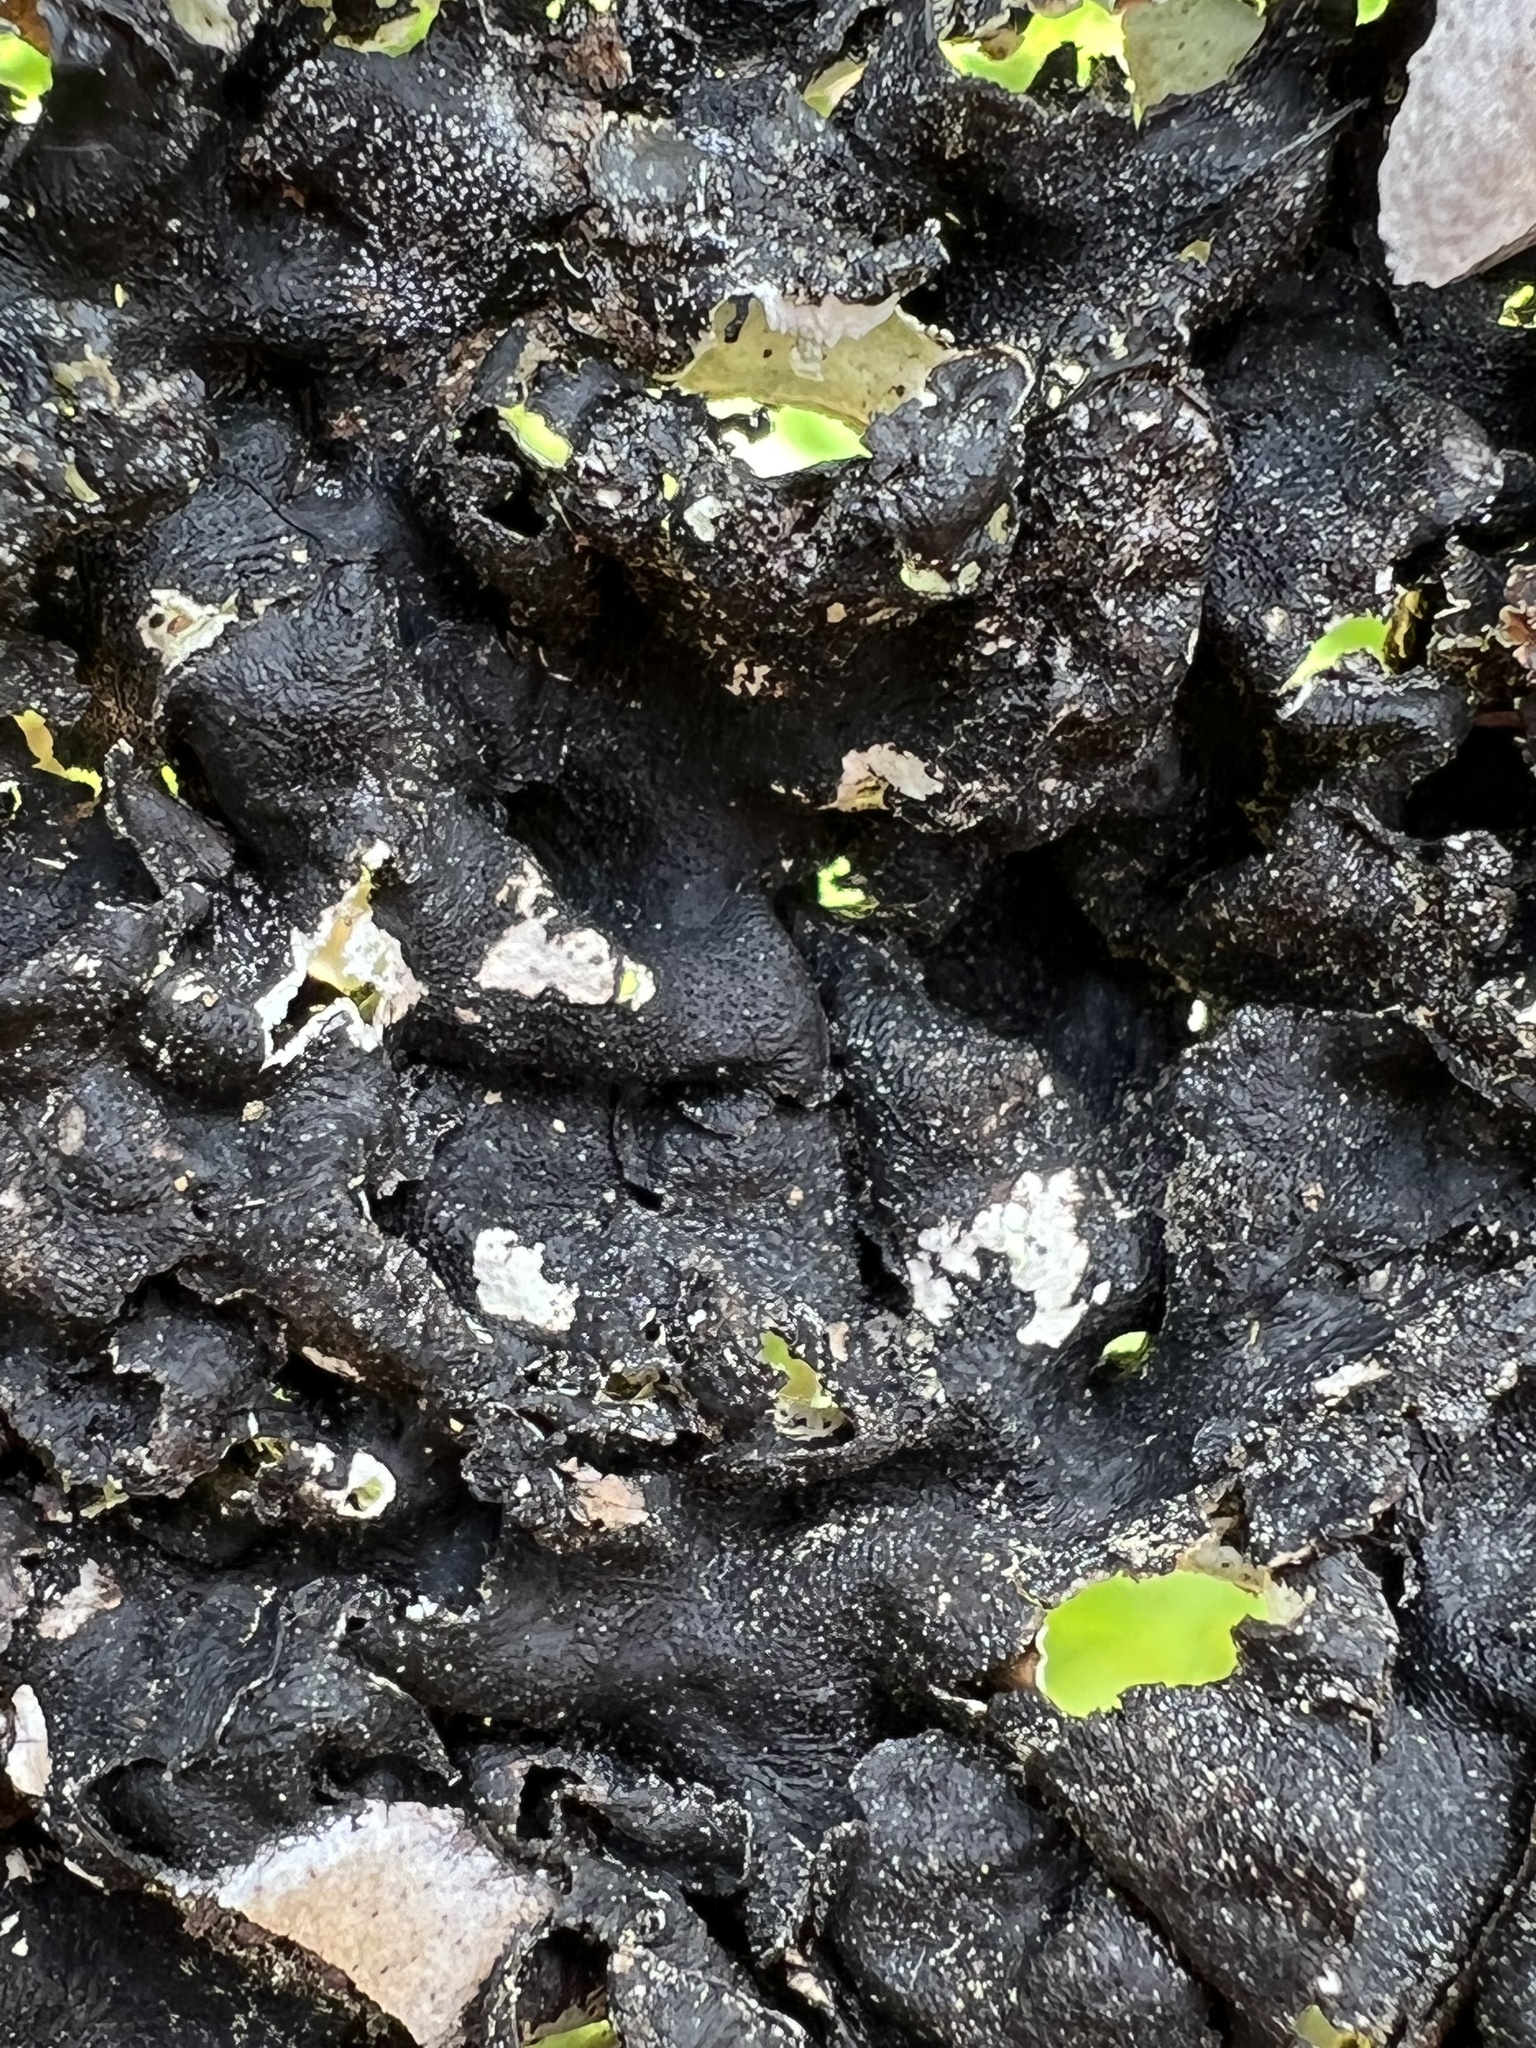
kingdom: Fungi
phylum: Ascomycota
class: Lecanoromycetes
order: Lecanorales
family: Parmeliaceae
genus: Flavoparmelia
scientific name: Flavoparmelia caperata
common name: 40-mile per hour lichen
